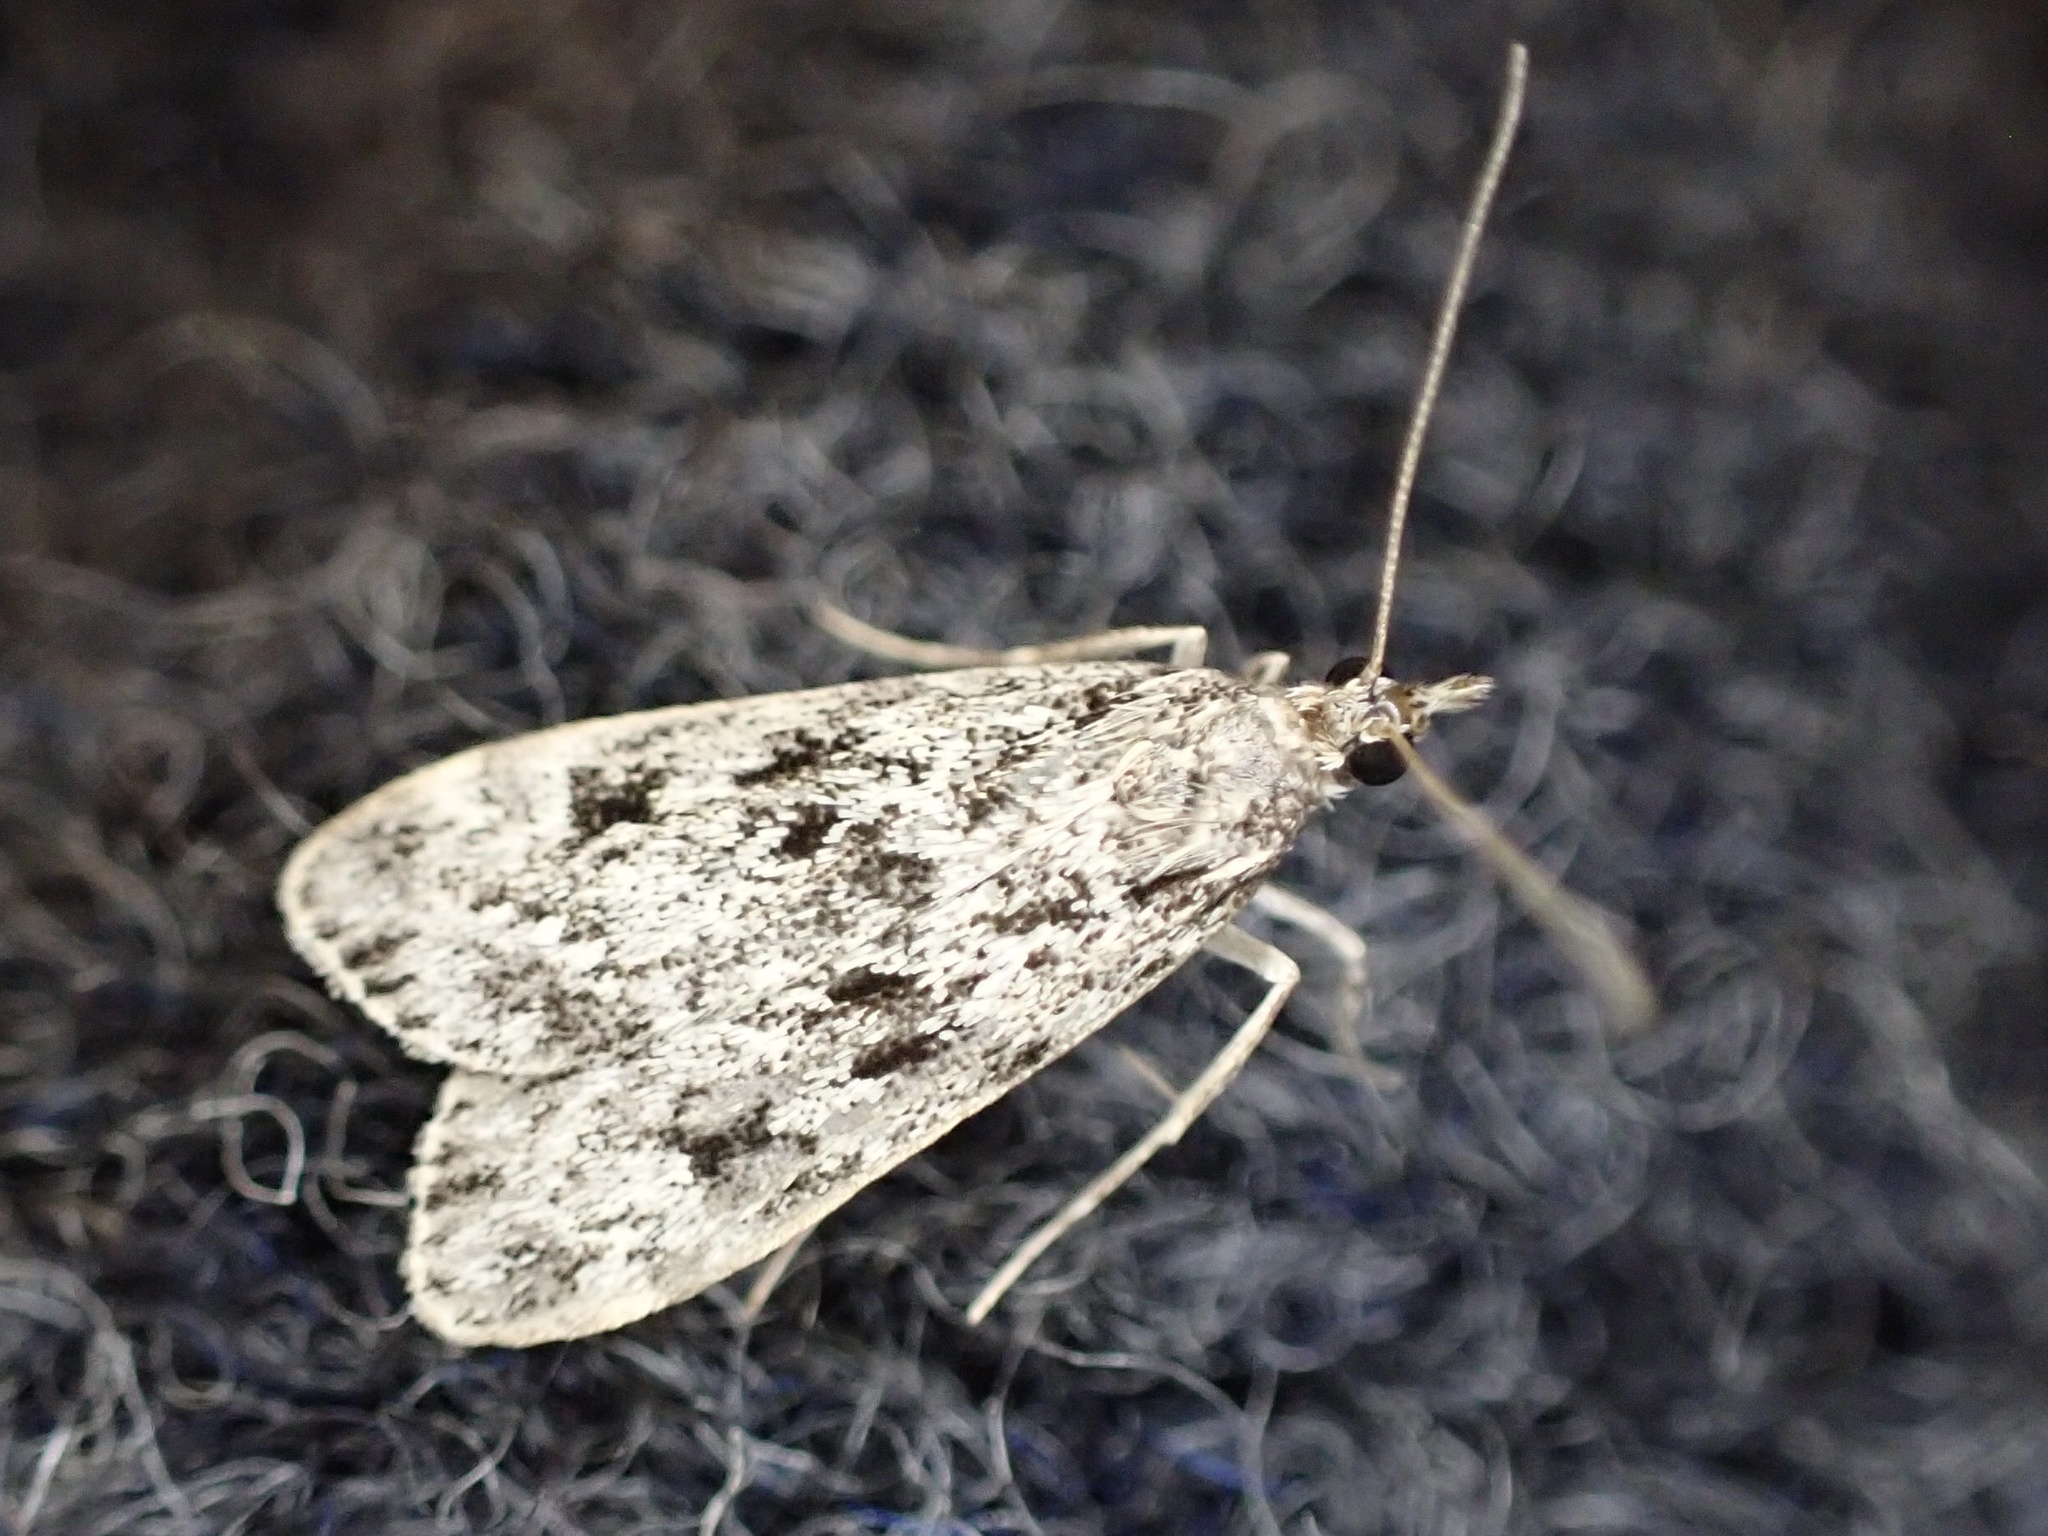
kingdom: Animalia
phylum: Arthropoda
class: Insecta
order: Lepidoptera
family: Crambidae
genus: Eudonia
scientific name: Eudonia truncicolella
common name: Ground-moss grey
